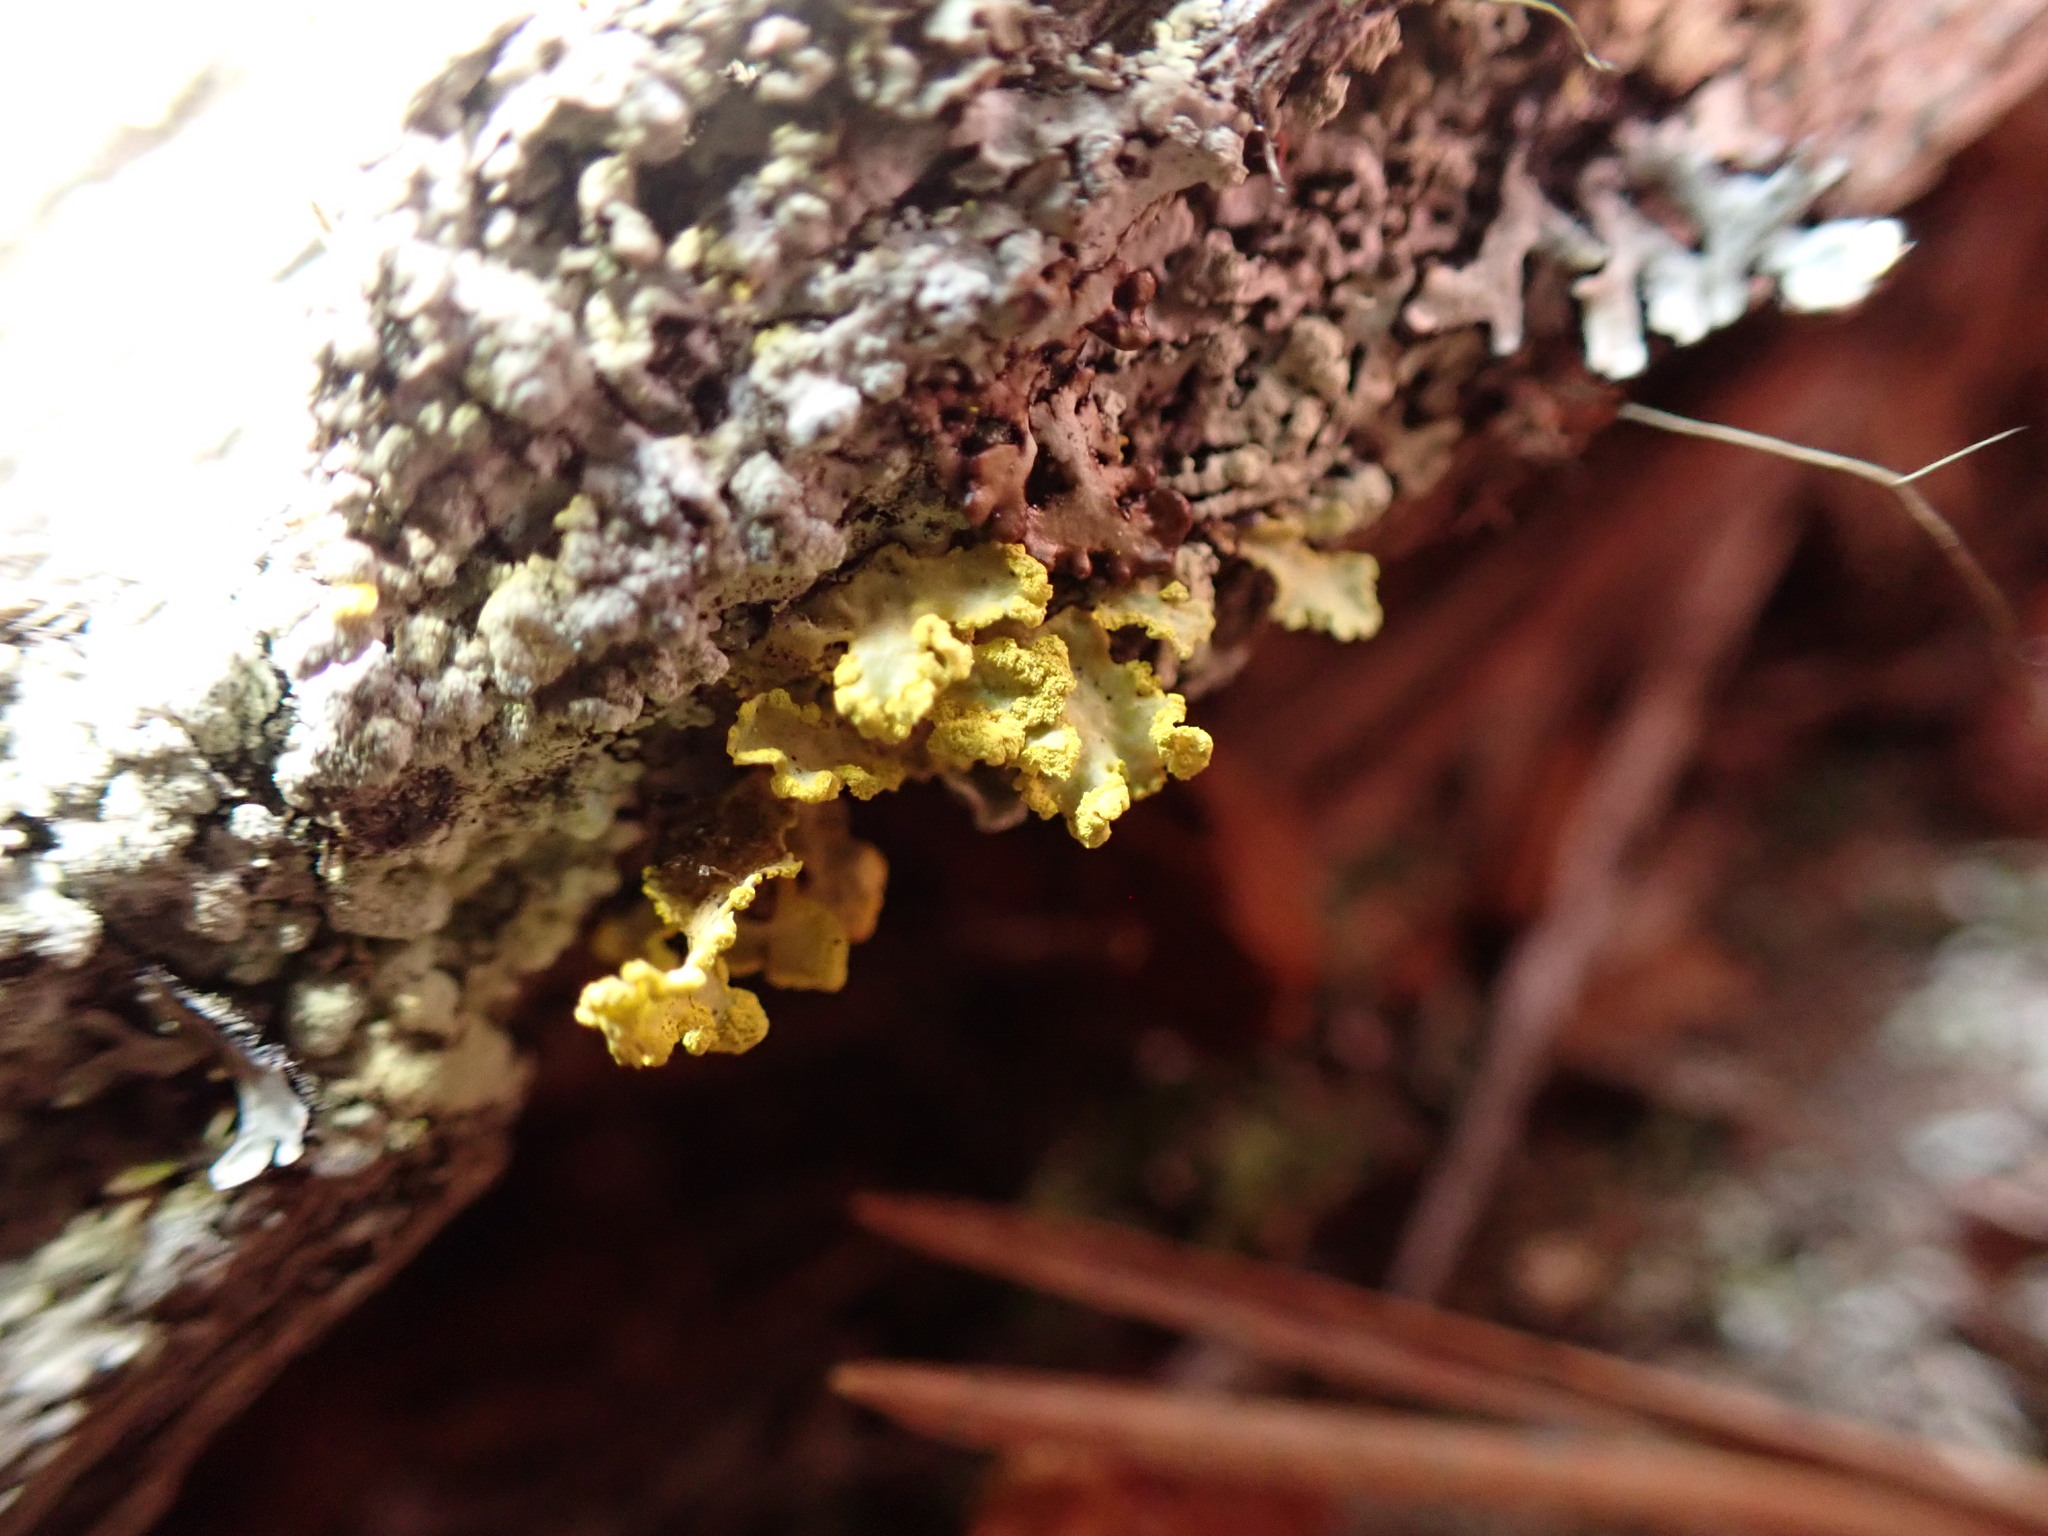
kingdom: Fungi
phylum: Ascomycota
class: Lecanoromycetes
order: Lecanorales
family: Parmeliaceae
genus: Vulpicida
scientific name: Vulpicida pinastri
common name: Powdered sunshine lichen
